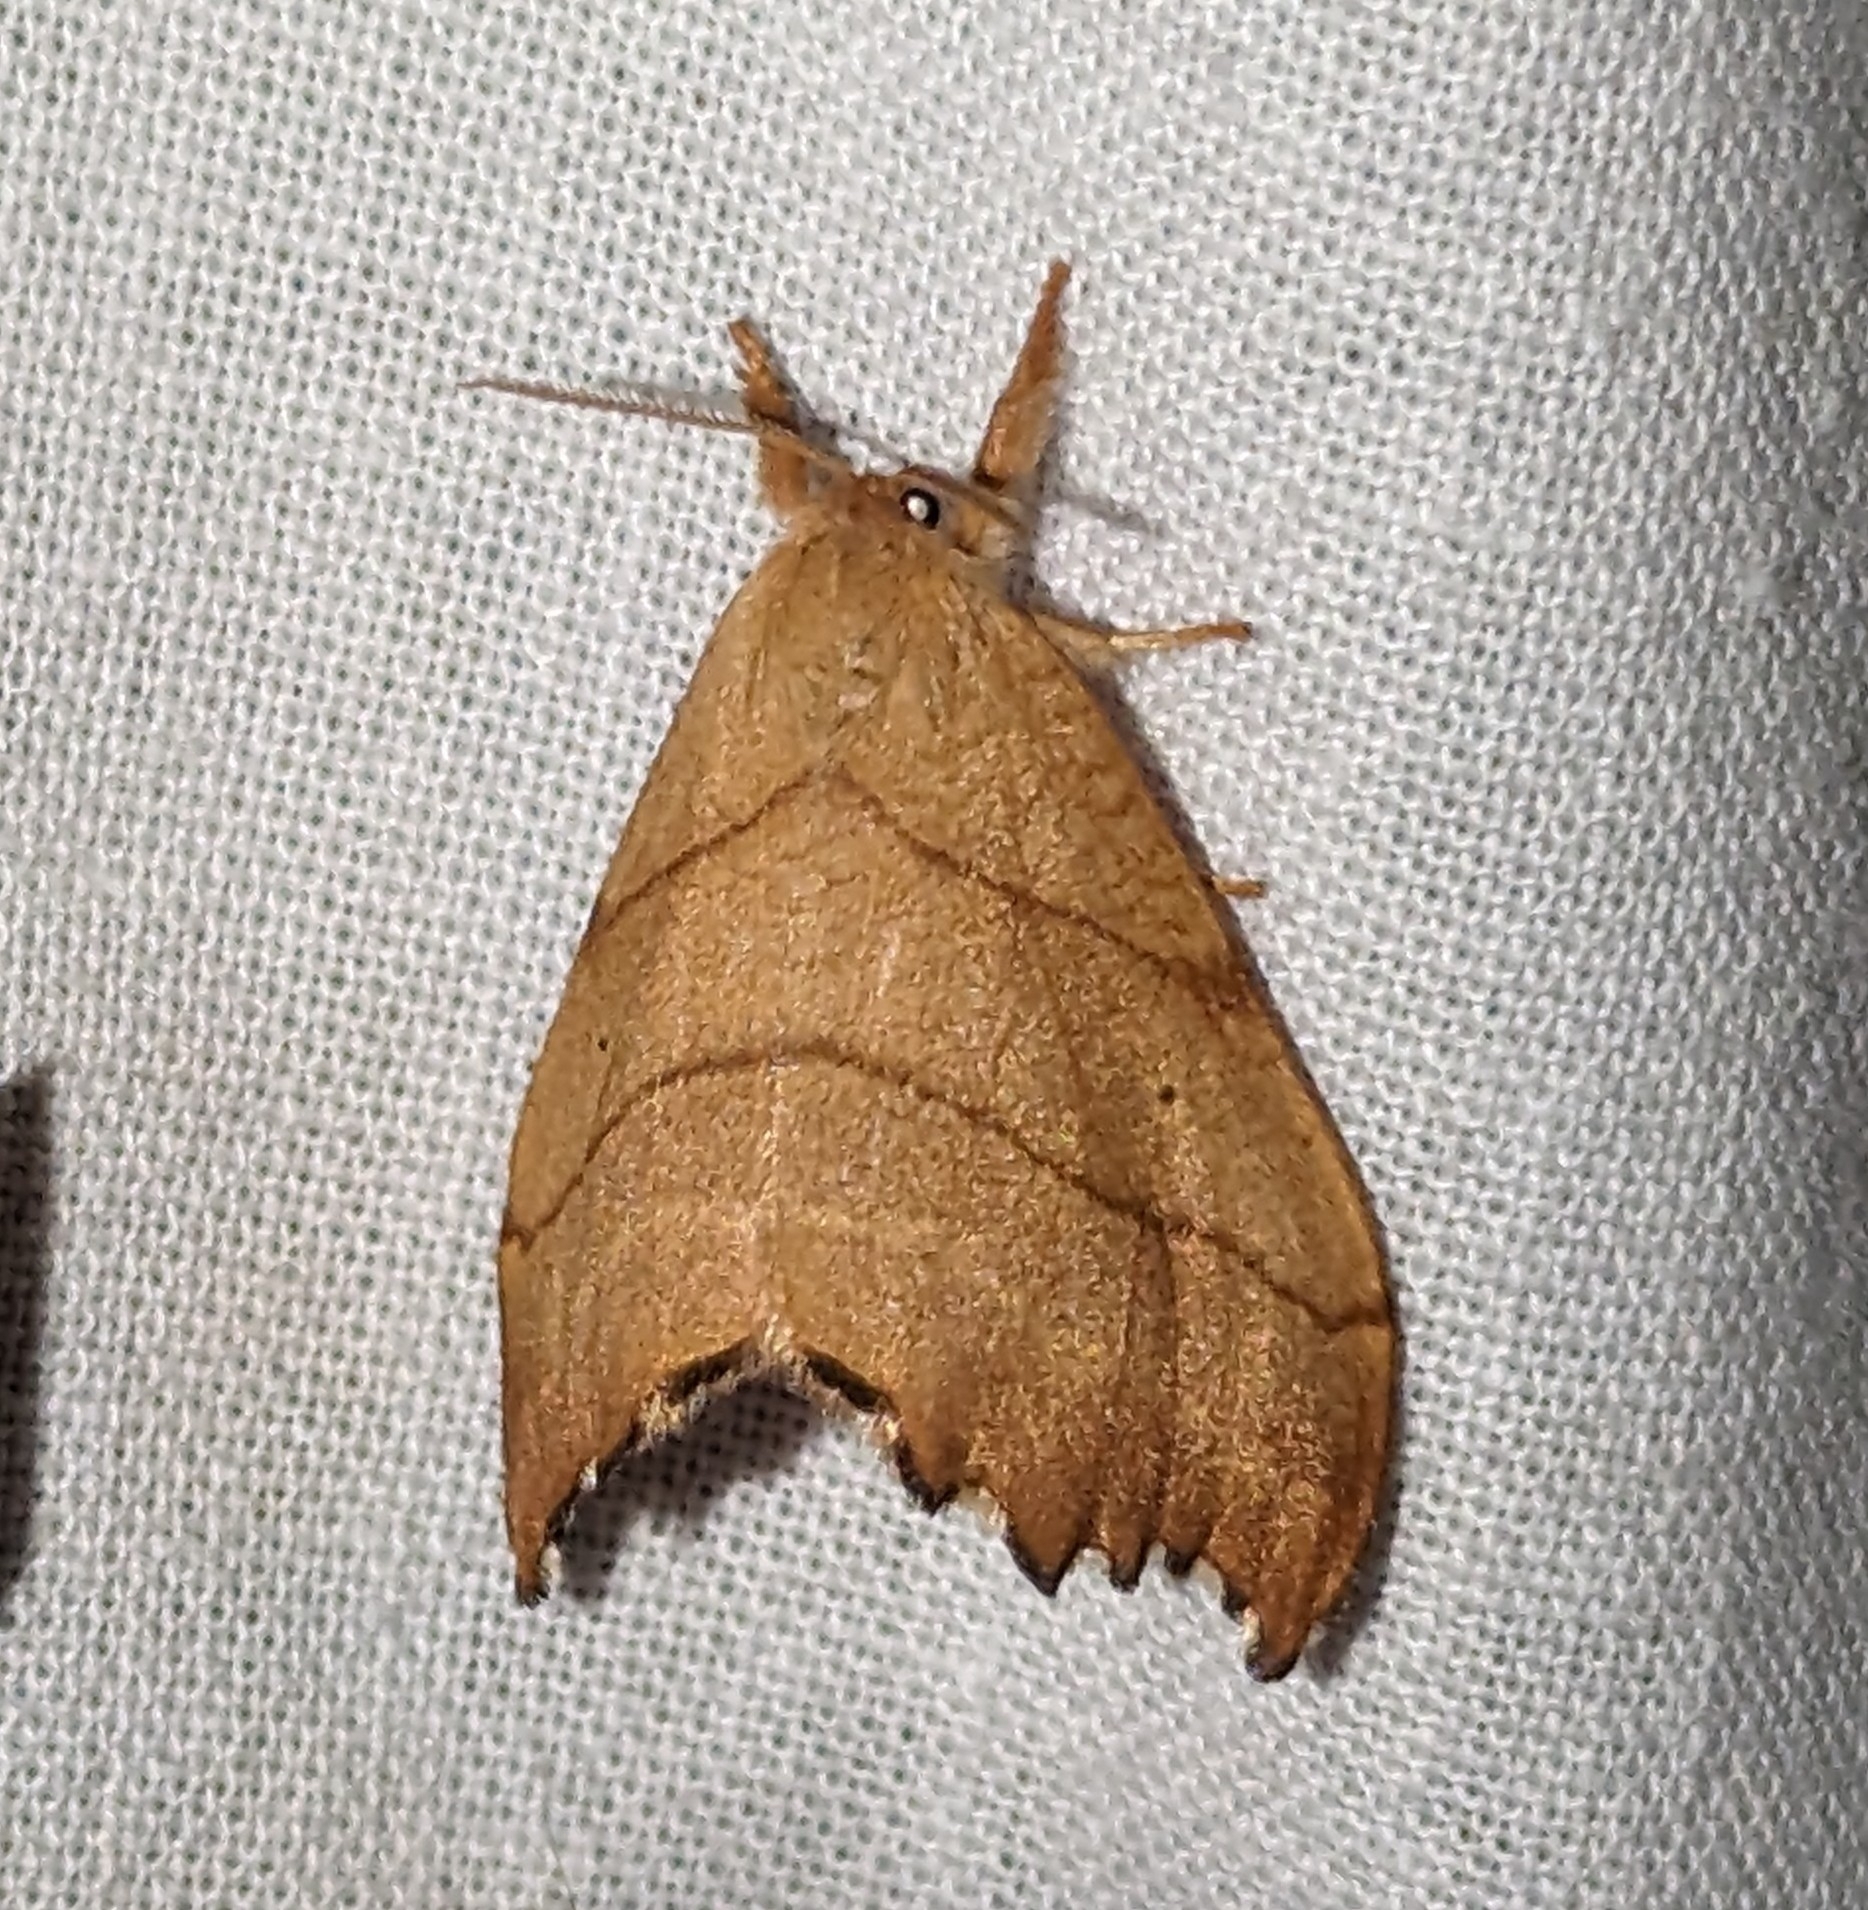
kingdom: Animalia
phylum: Arthropoda
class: Insecta
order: Lepidoptera
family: Drepanidae
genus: Falcaria
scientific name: Falcaria bilineata
